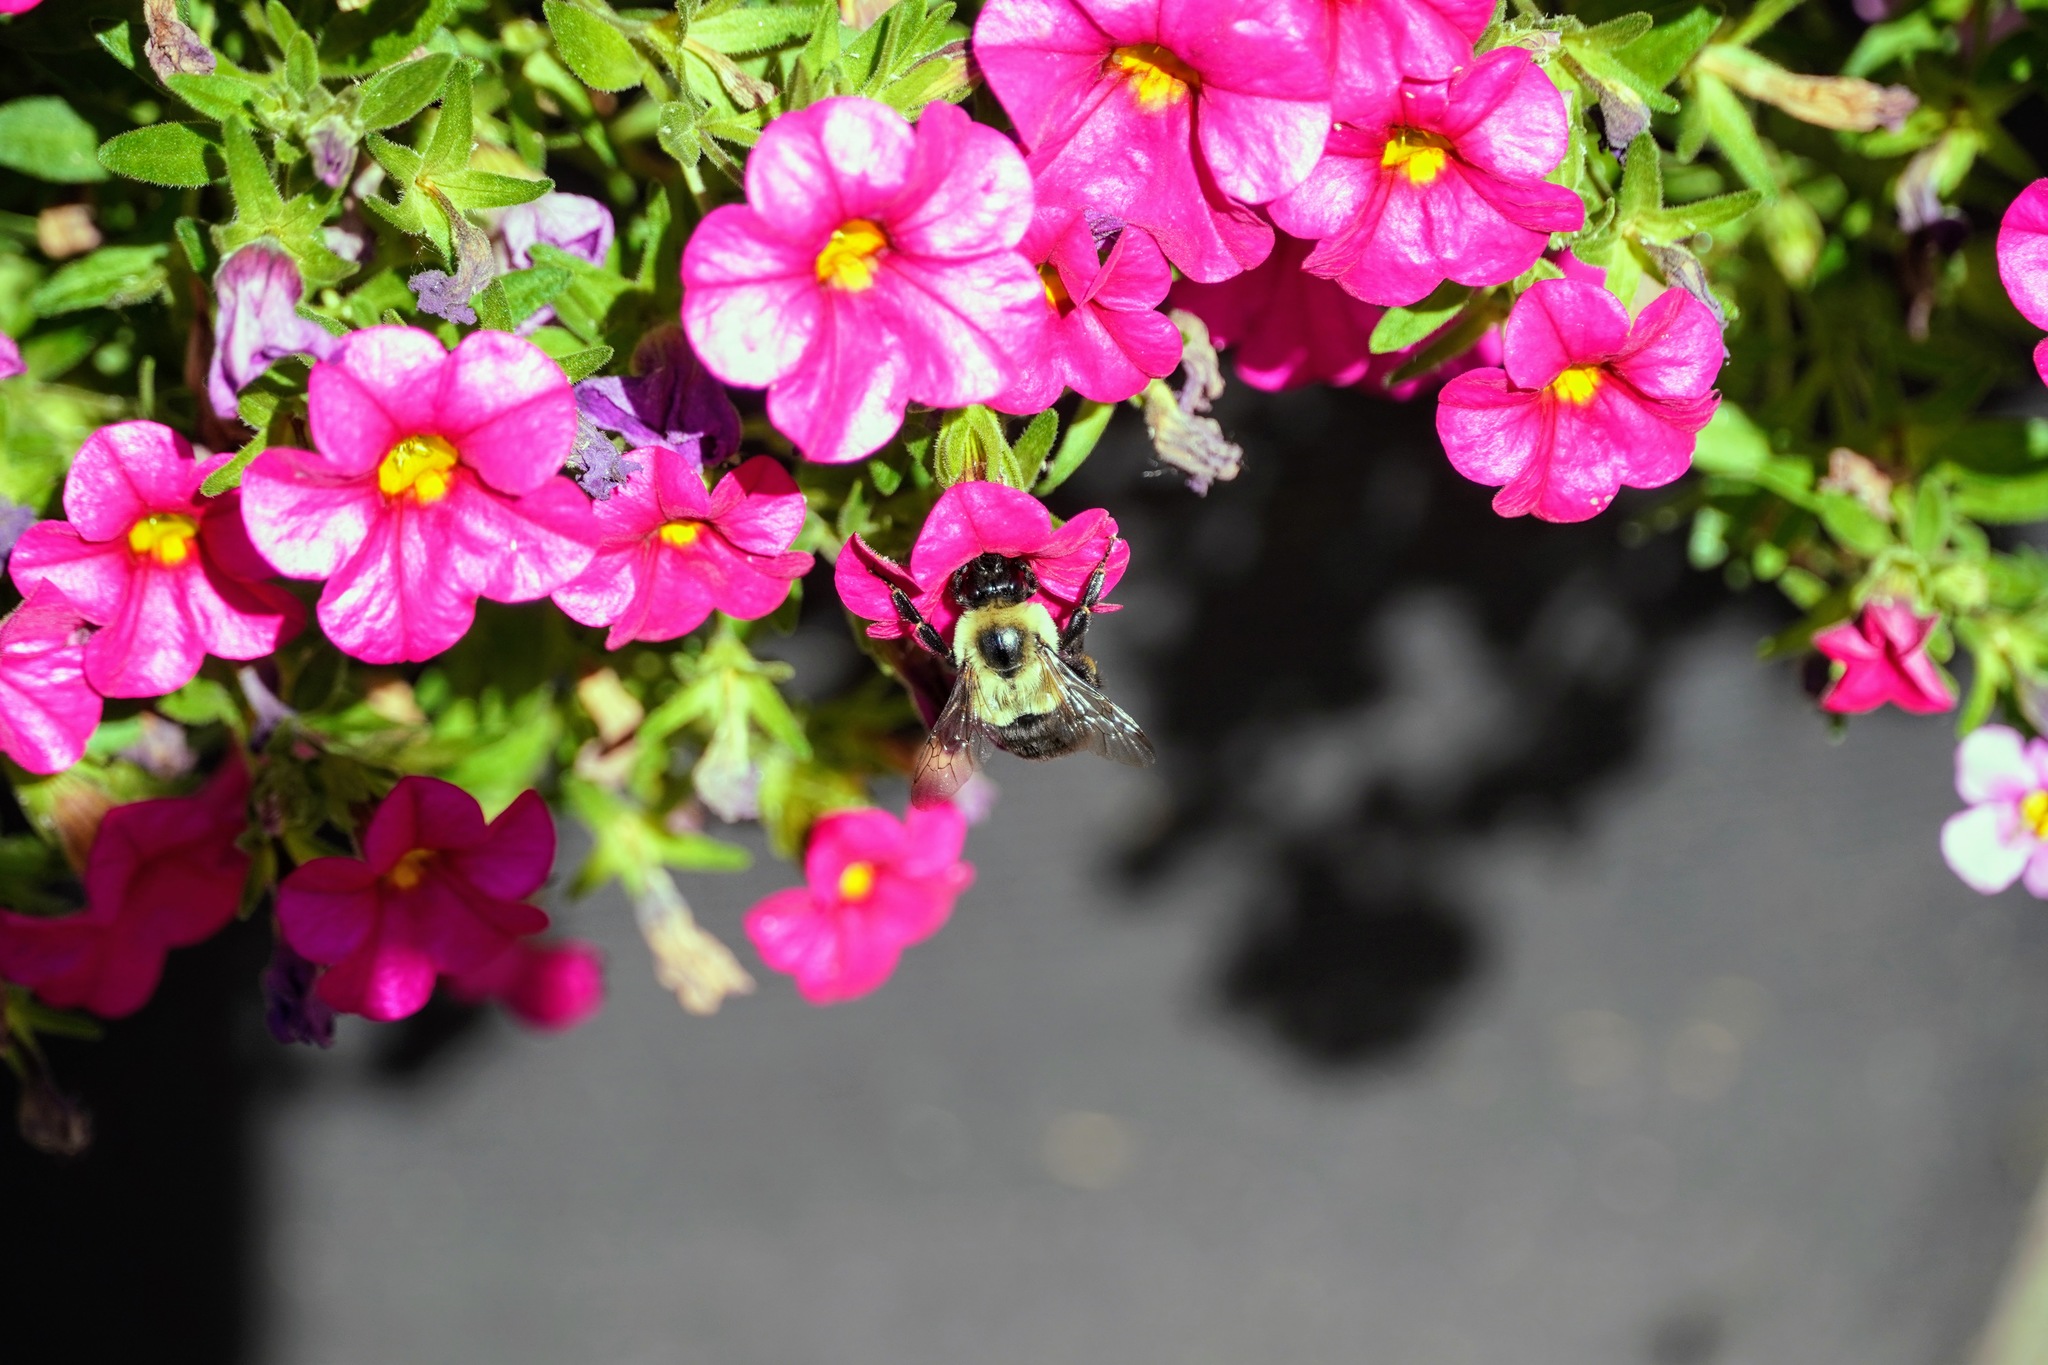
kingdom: Animalia
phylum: Arthropoda
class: Insecta
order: Hymenoptera
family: Apidae
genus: Bombus
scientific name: Bombus impatiens
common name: Common eastern bumble bee
